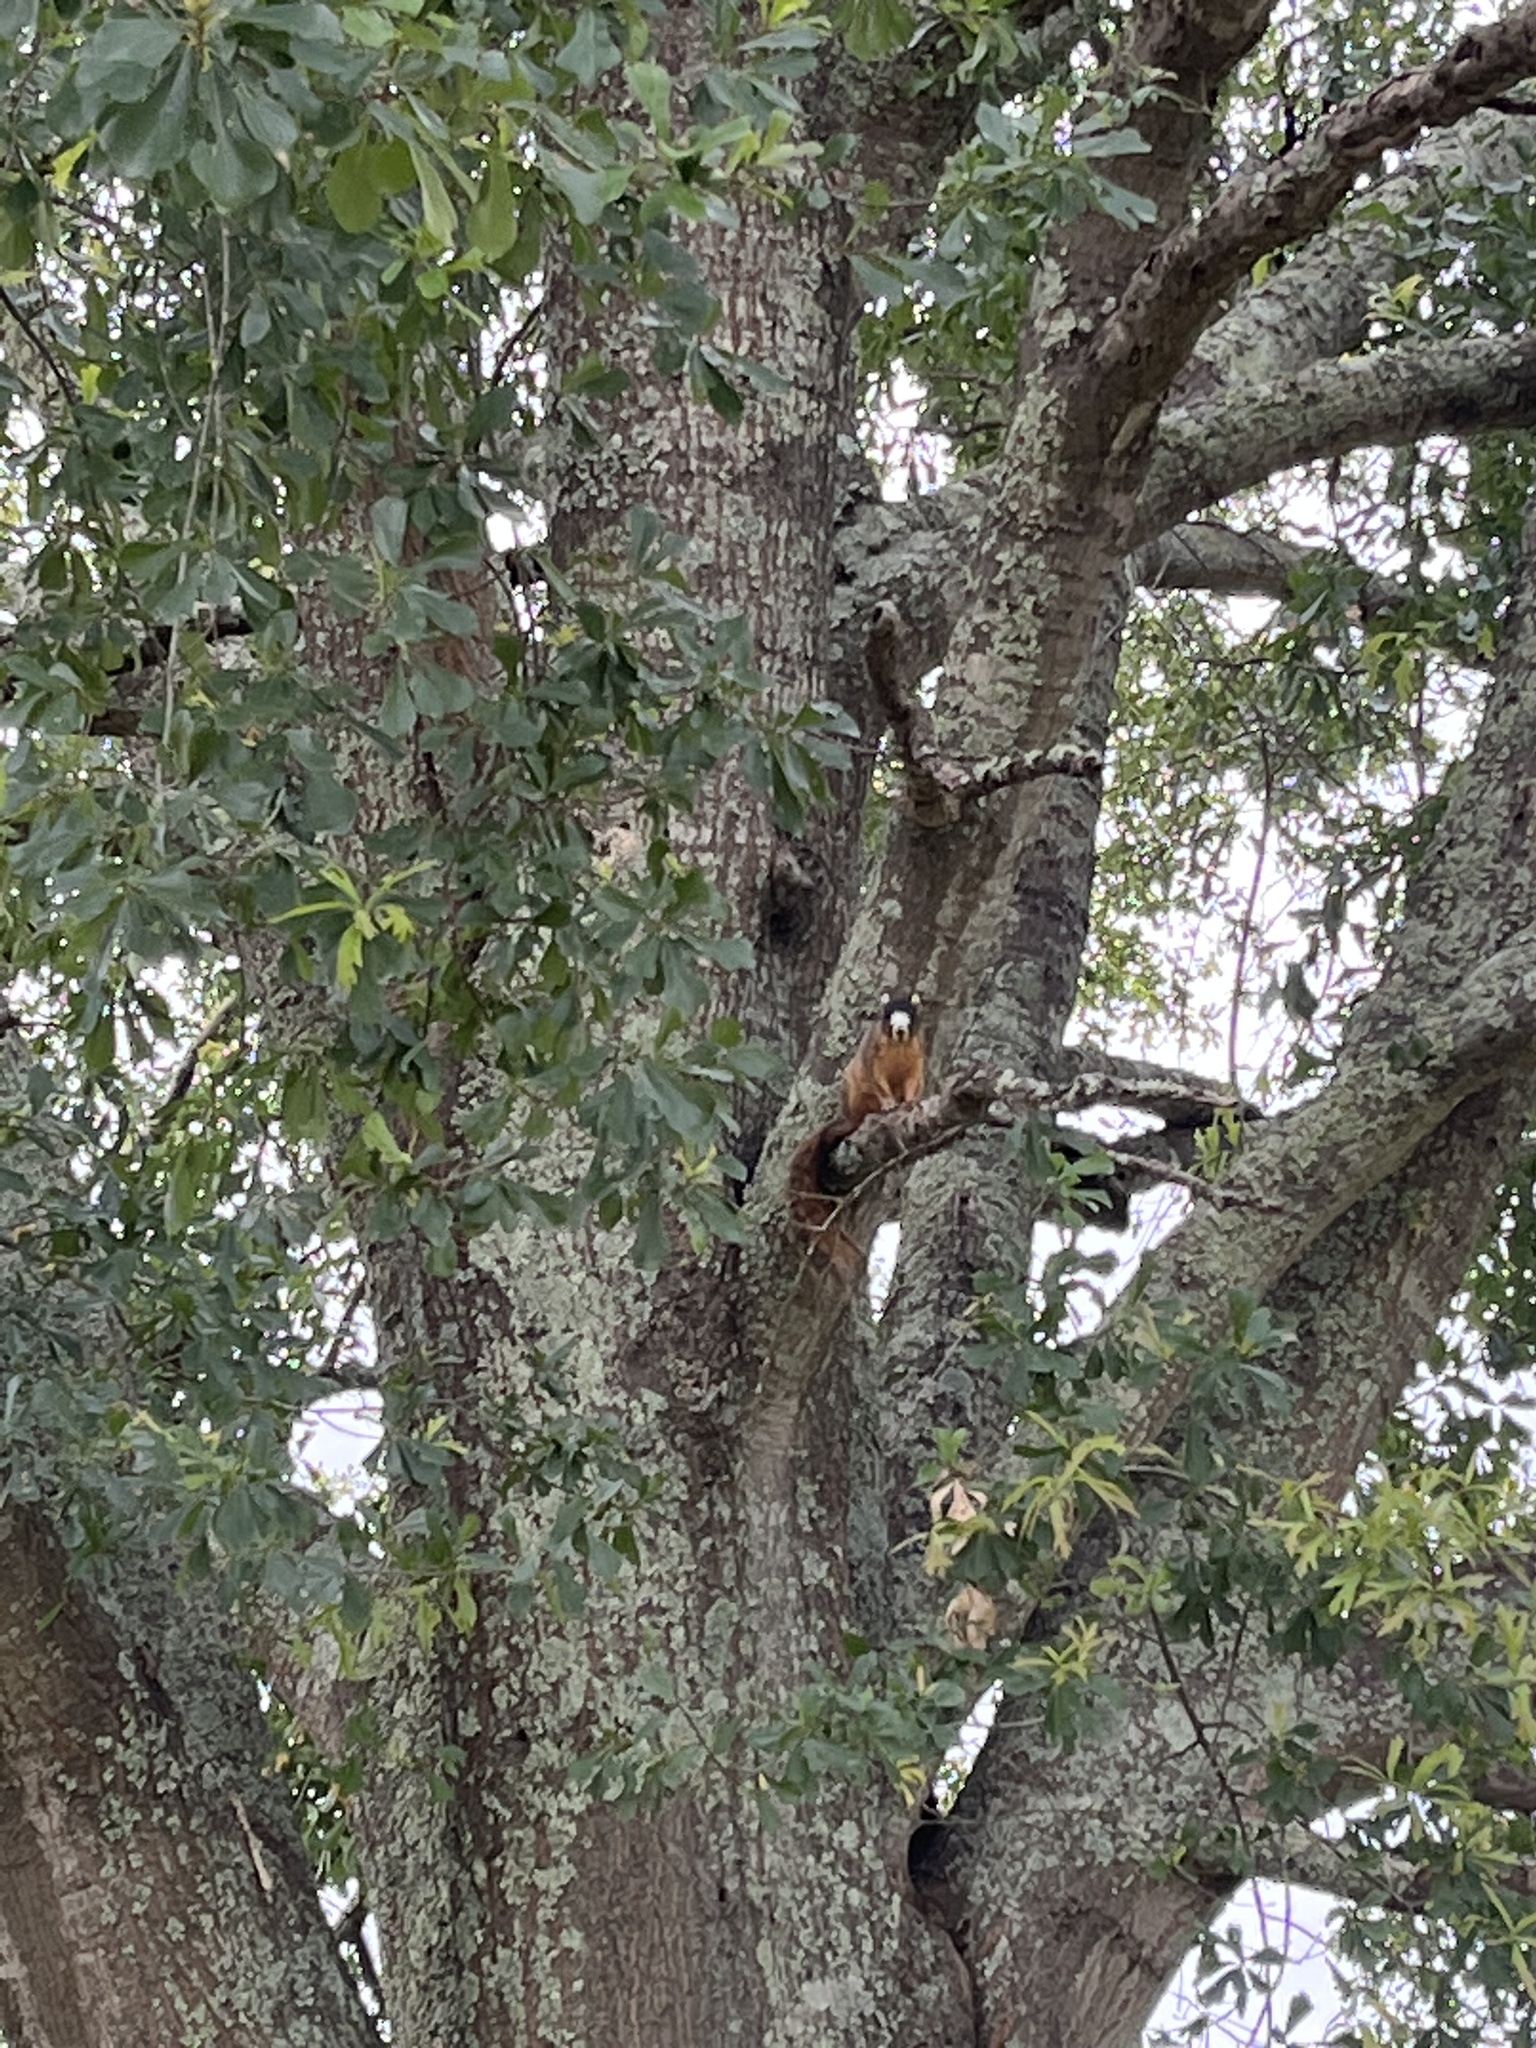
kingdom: Animalia
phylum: Chordata
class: Mammalia
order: Rodentia
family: Sciuridae
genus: Sciurus
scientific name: Sciurus niger
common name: Fox squirrel
